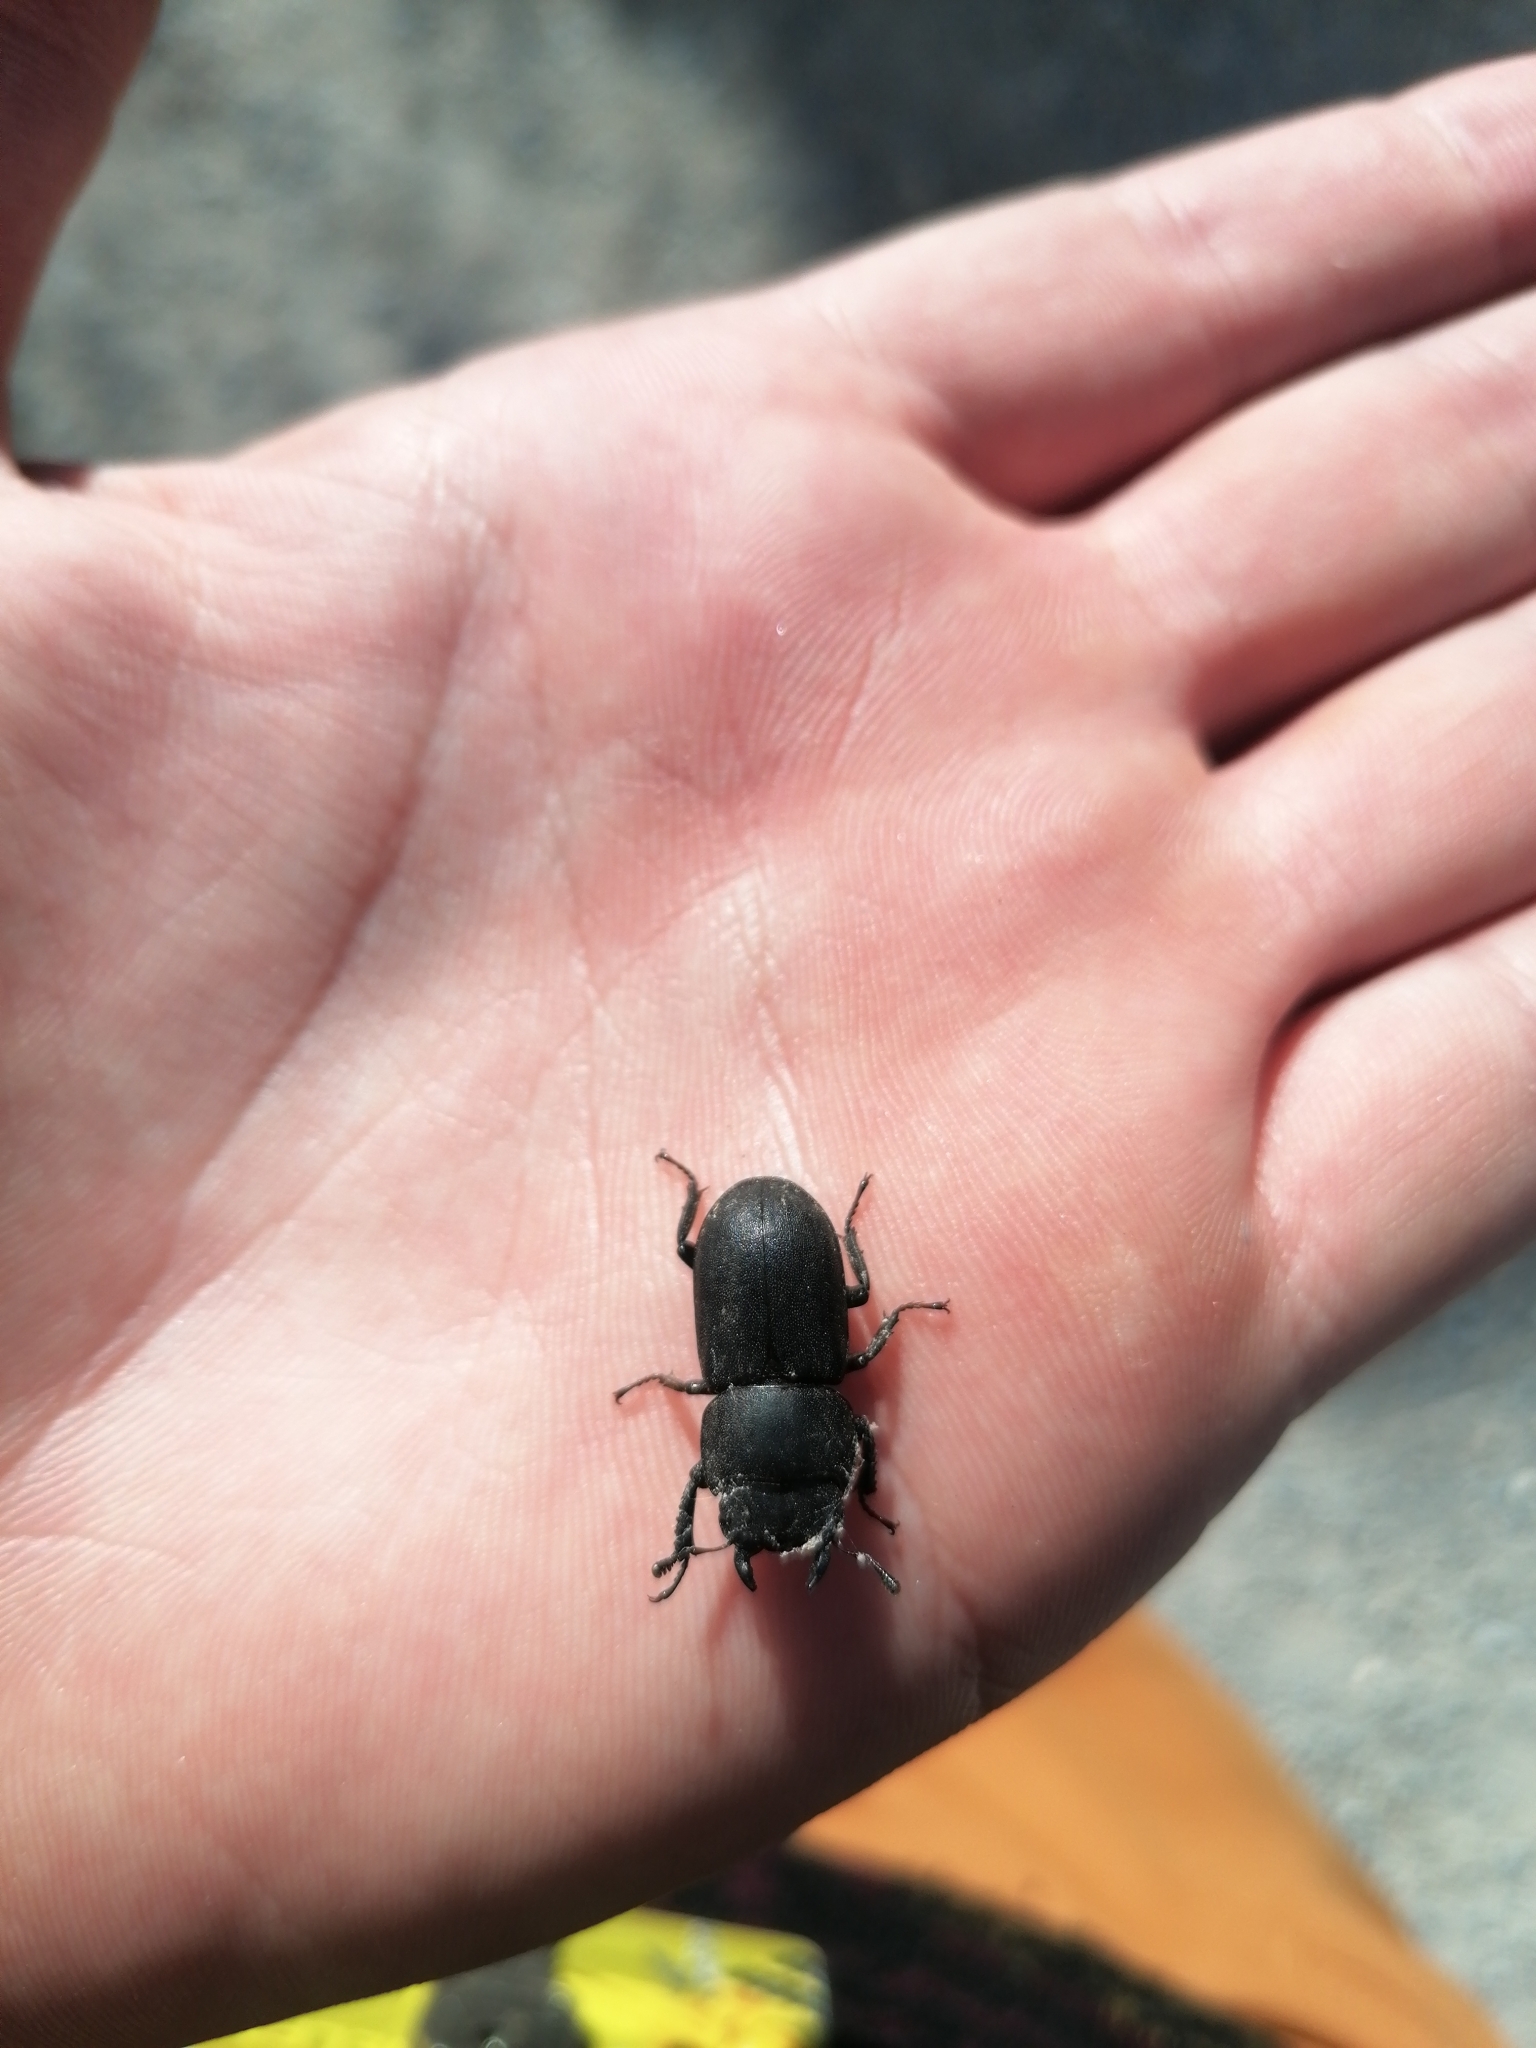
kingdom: Animalia
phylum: Arthropoda
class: Insecta
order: Coleoptera
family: Lucanidae
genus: Dorcus
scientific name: Dorcus parallelipipedus
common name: Lesser stag beetle
